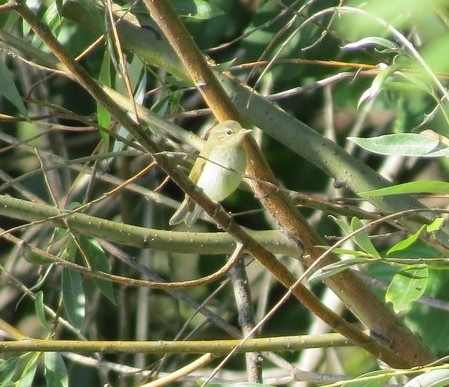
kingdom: Animalia
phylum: Chordata
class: Aves
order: Passeriformes
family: Phylloscopidae
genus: Phylloscopus
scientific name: Phylloscopus trochiloides
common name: Greenish warbler
